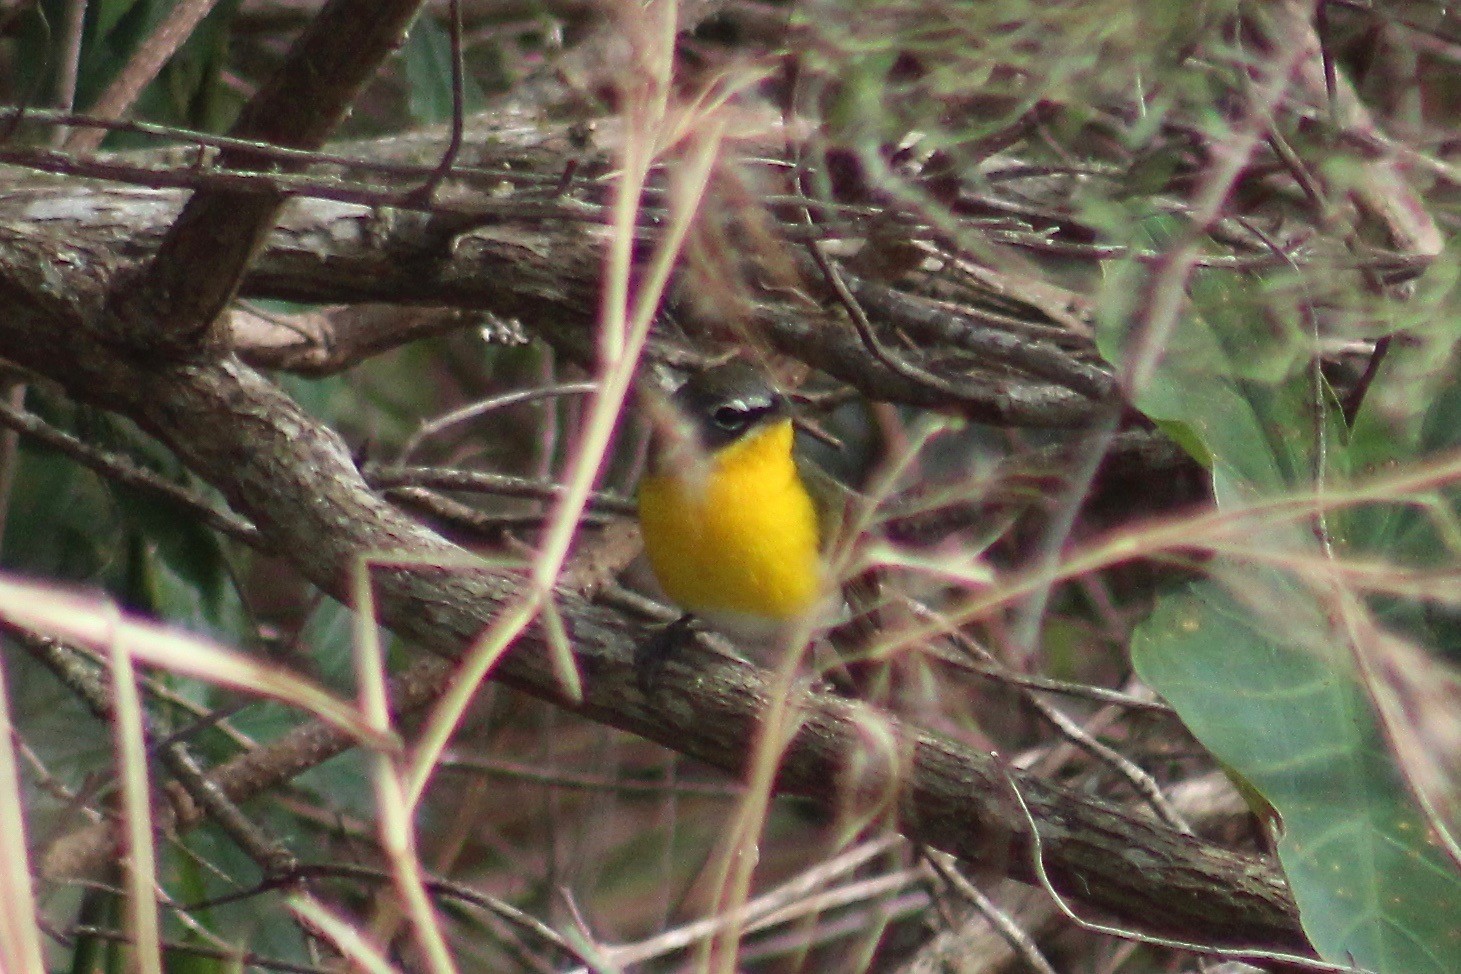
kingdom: Animalia
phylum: Chordata
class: Aves
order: Passeriformes
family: Parulidae
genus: Icteria
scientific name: Icteria virens
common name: Yellow-breasted chat
